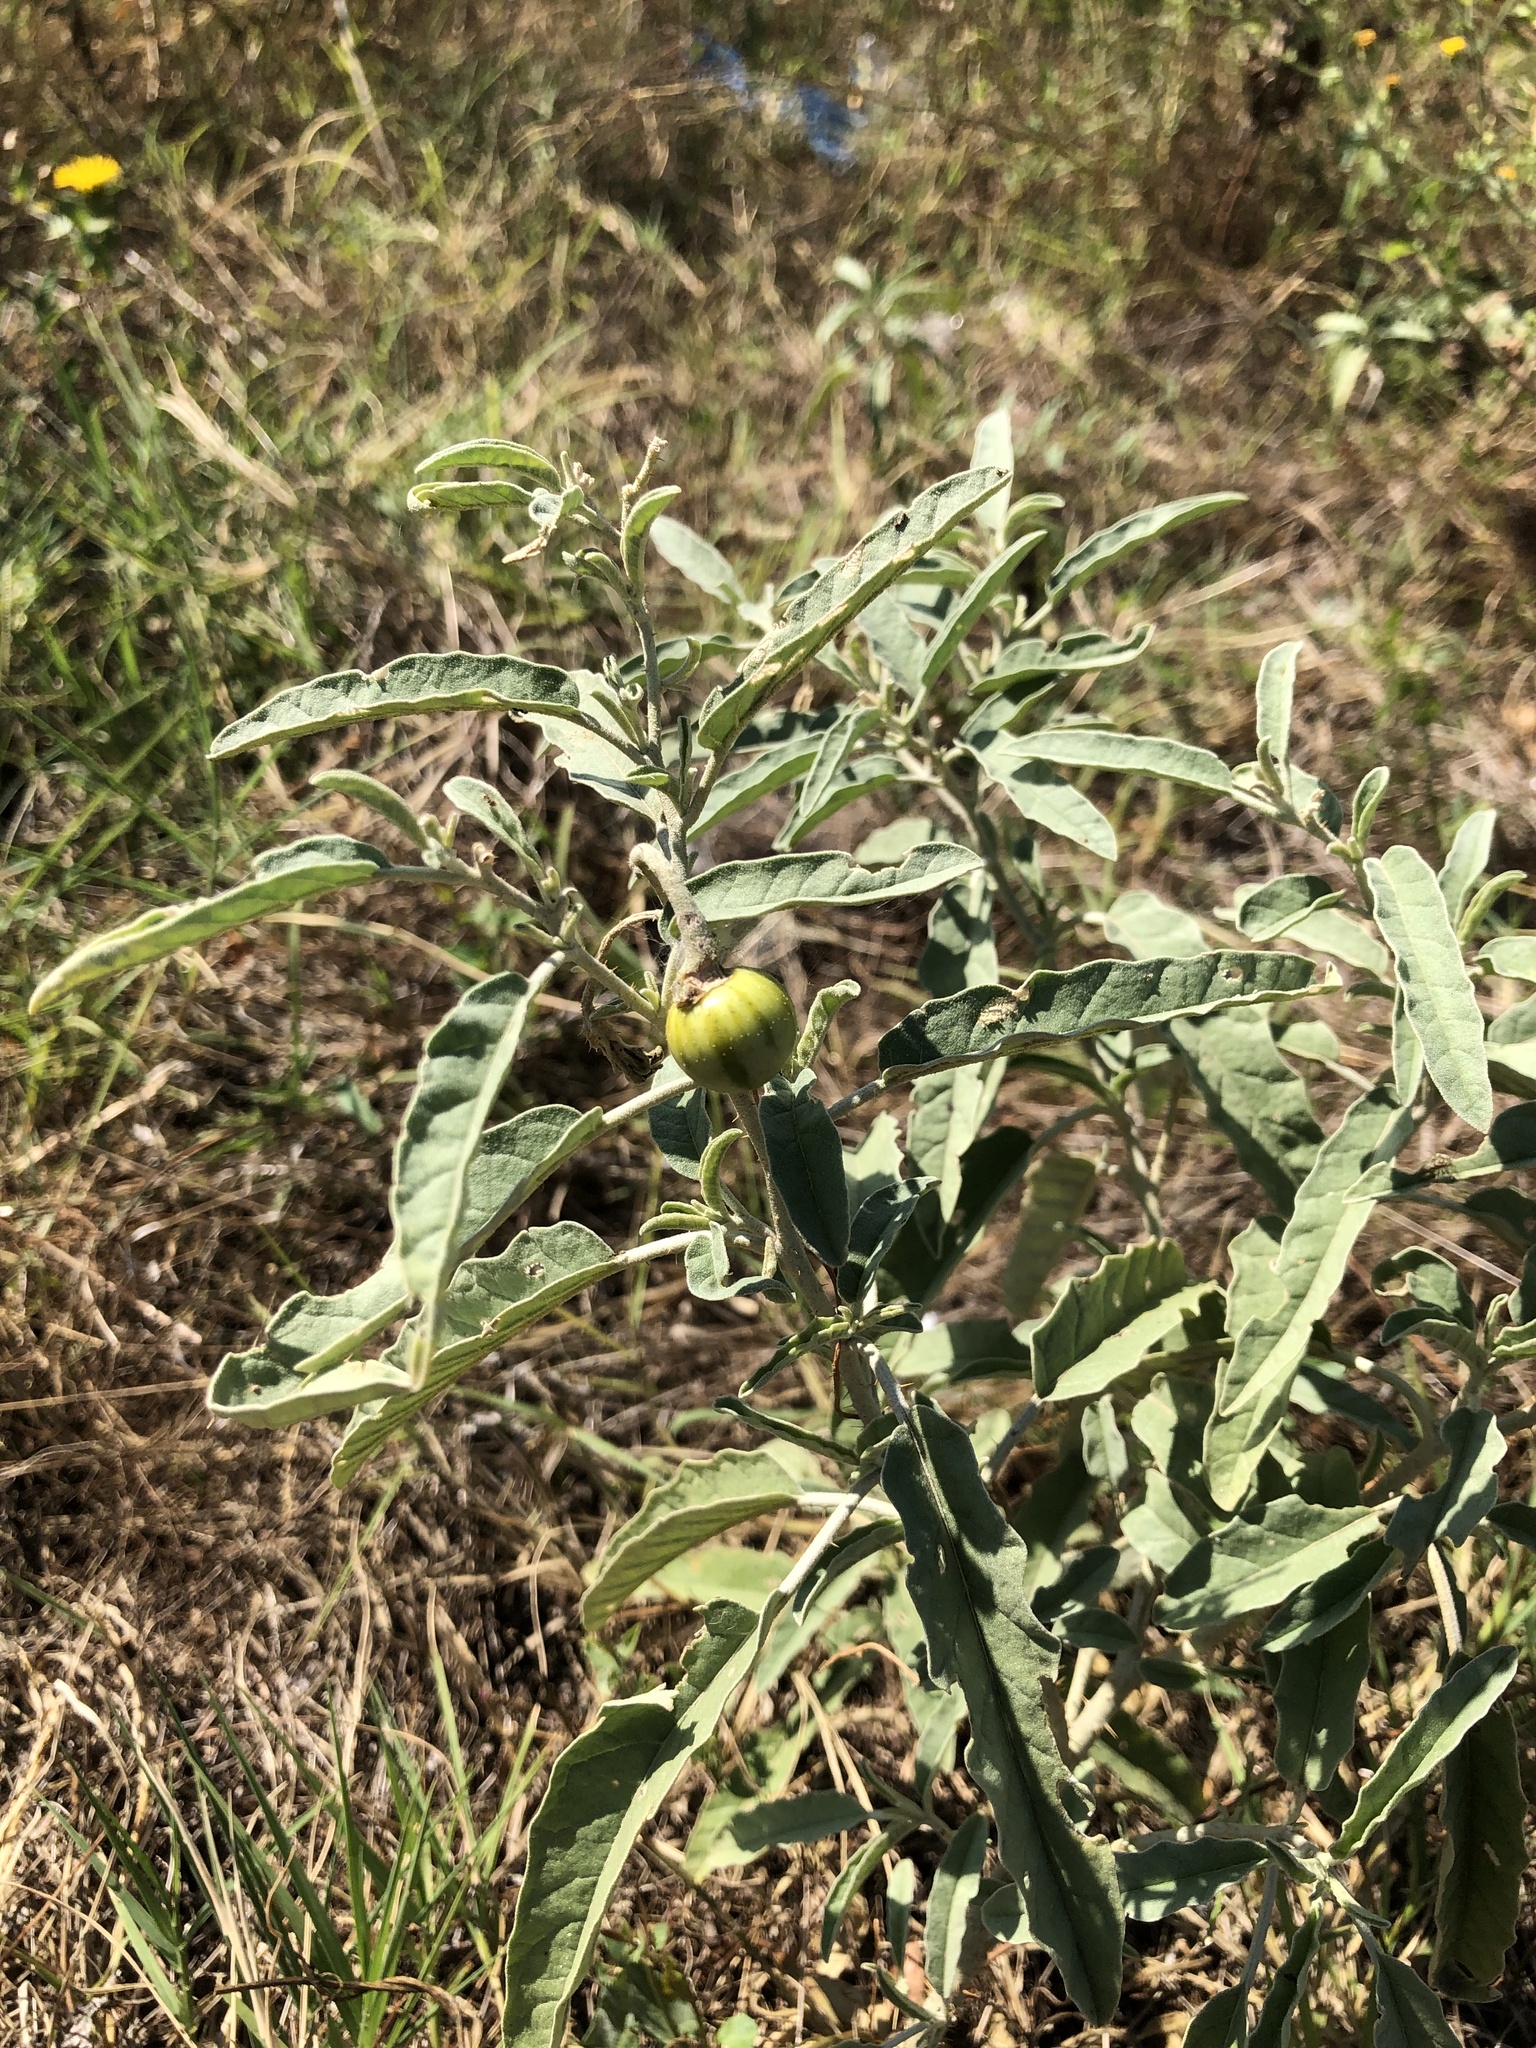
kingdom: Plantae
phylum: Tracheophyta
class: Magnoliopsida
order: Solanales
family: Solanaceae
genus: Solanum
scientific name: Solanum elaeagnifolium
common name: Silverleaf nightshade
